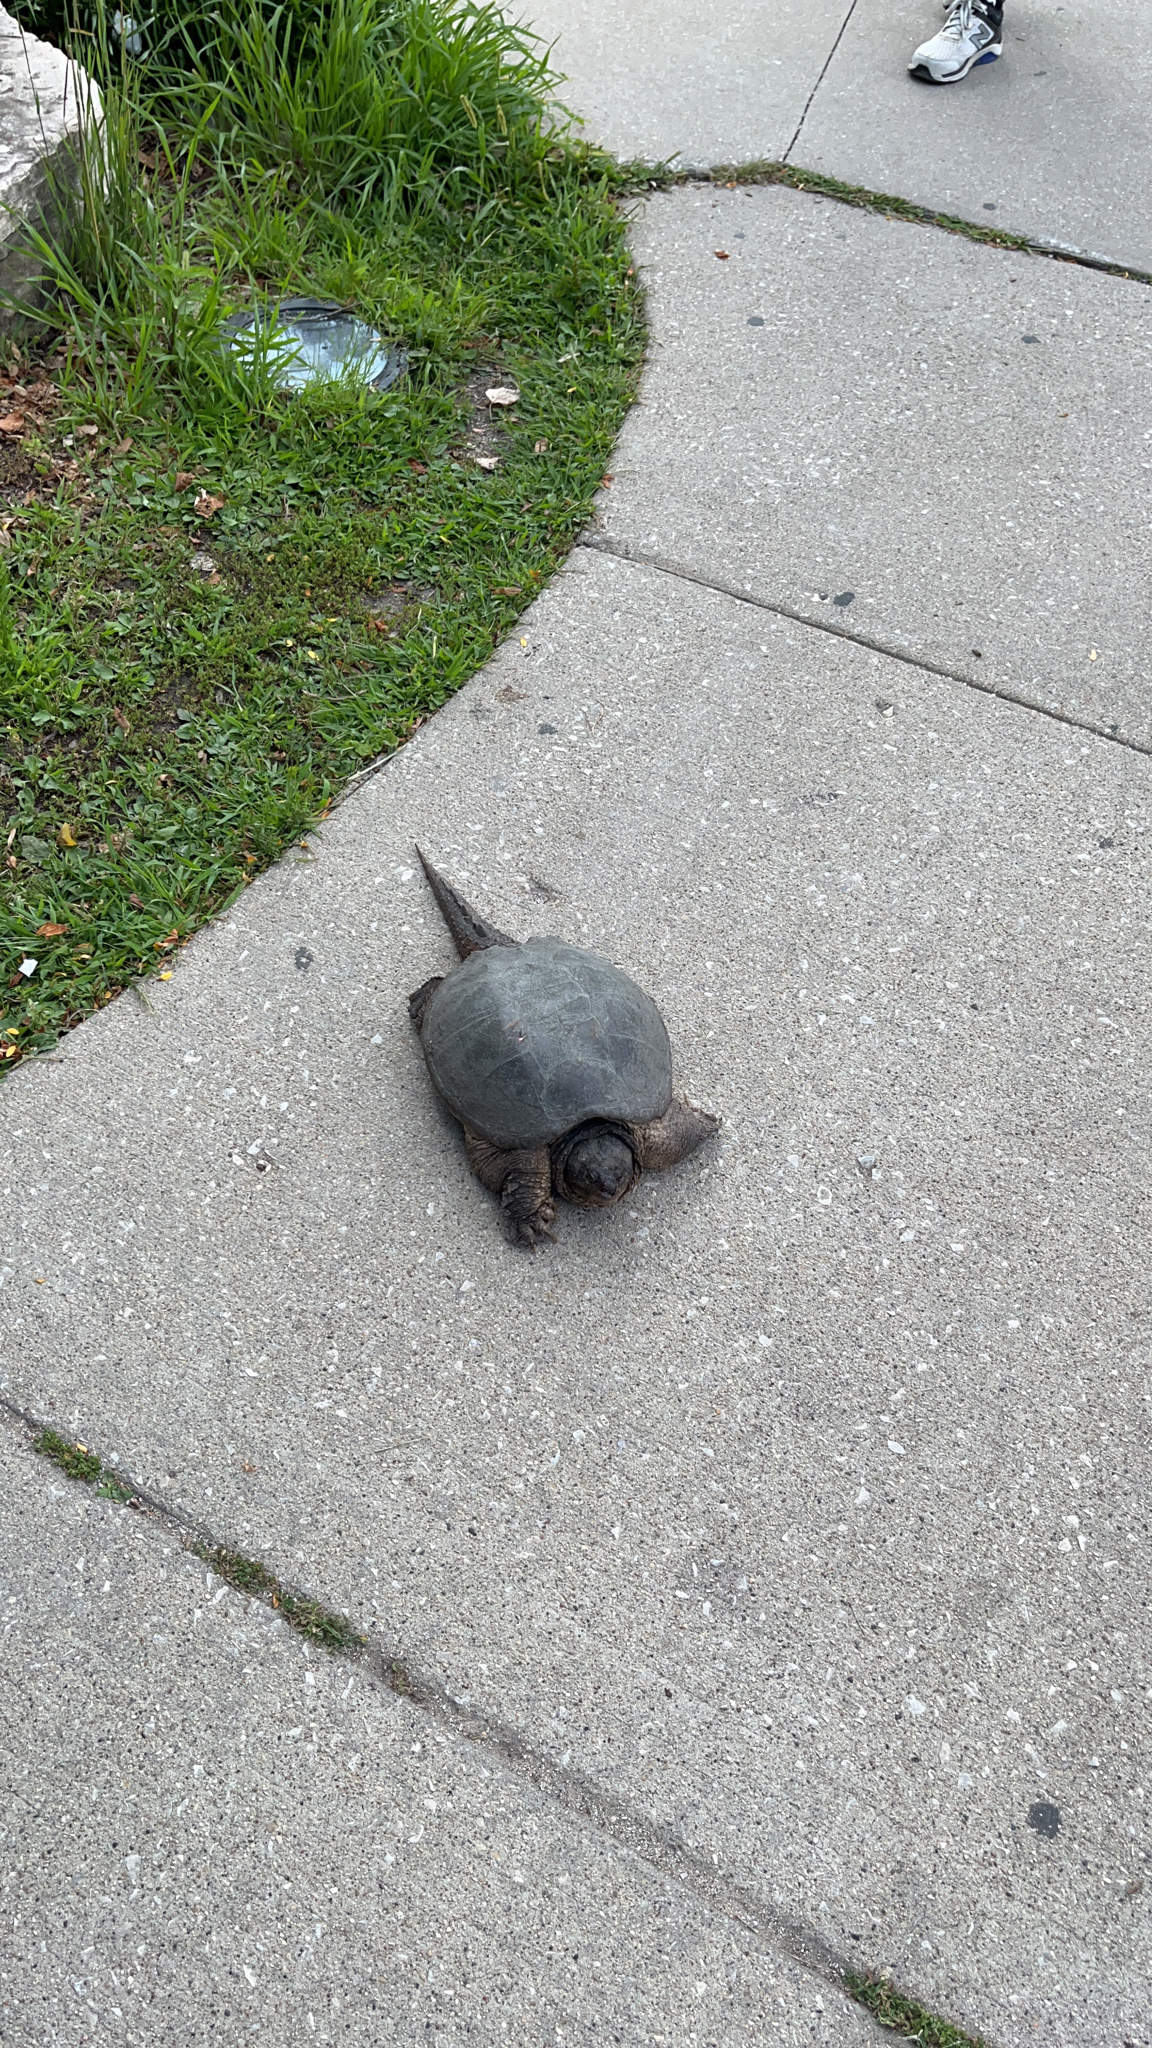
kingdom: Animalia
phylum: Chordata
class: Testudines
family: Chelydridae
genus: Chelydra
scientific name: Chelydra serpentina
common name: Common snapping turtle
